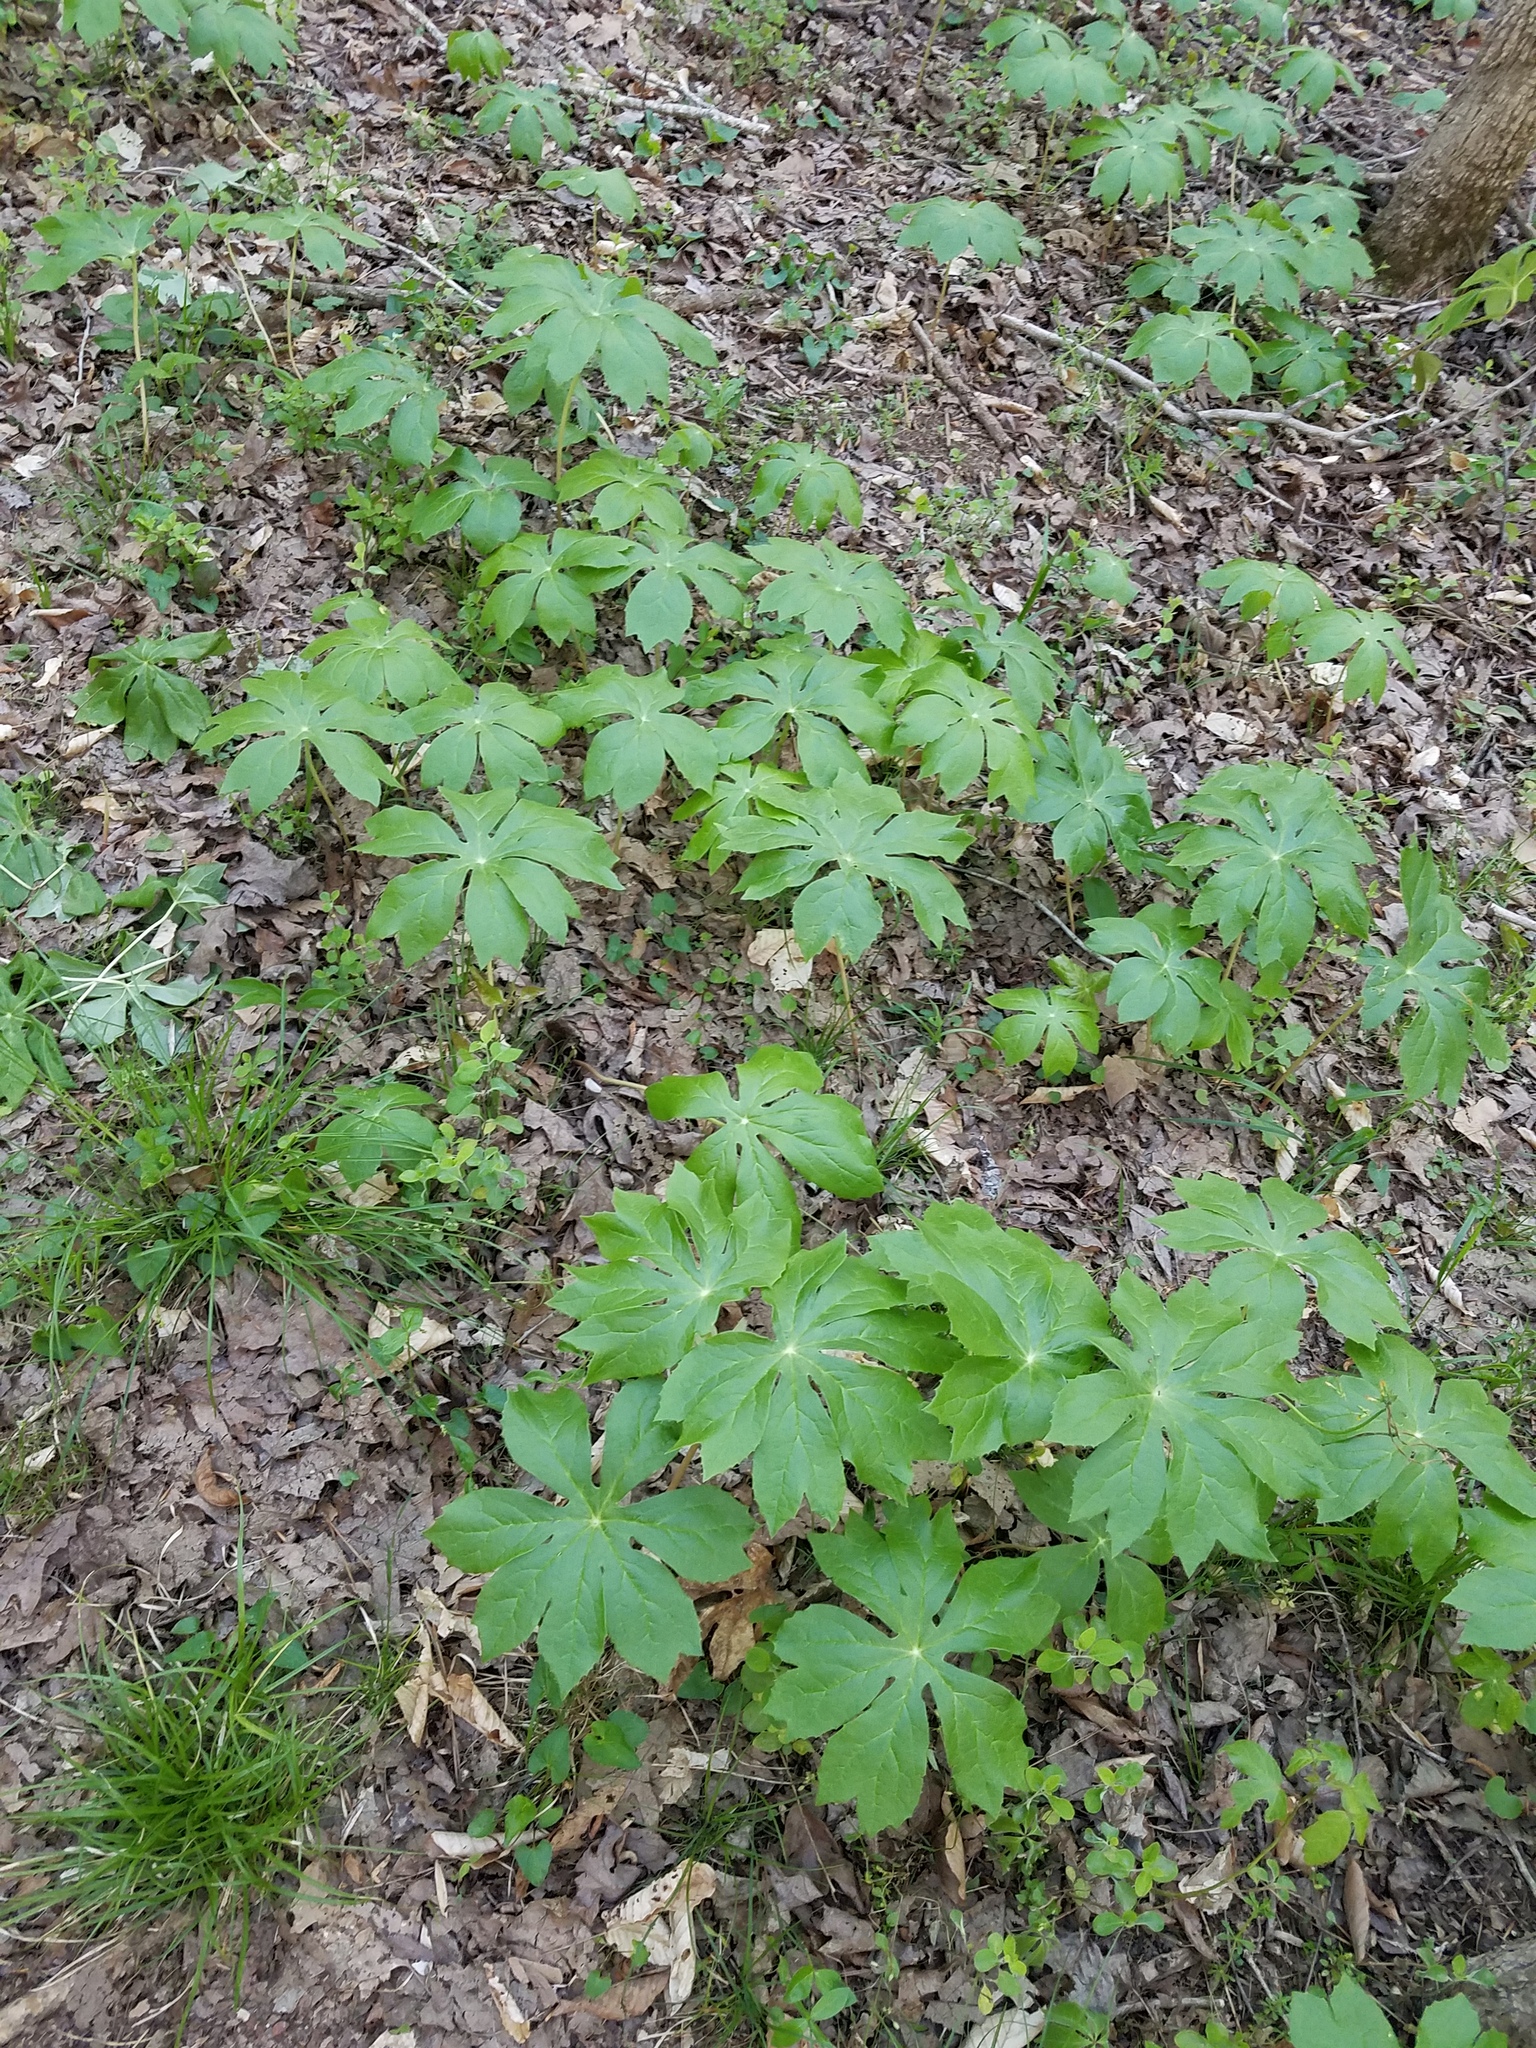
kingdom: Plantae
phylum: Tracheophyta
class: Magnoliopsida
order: Ranunculales
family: Berberidaceae
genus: Podophyllum
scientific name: Podophyllum peltatum
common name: Wild mandrake
